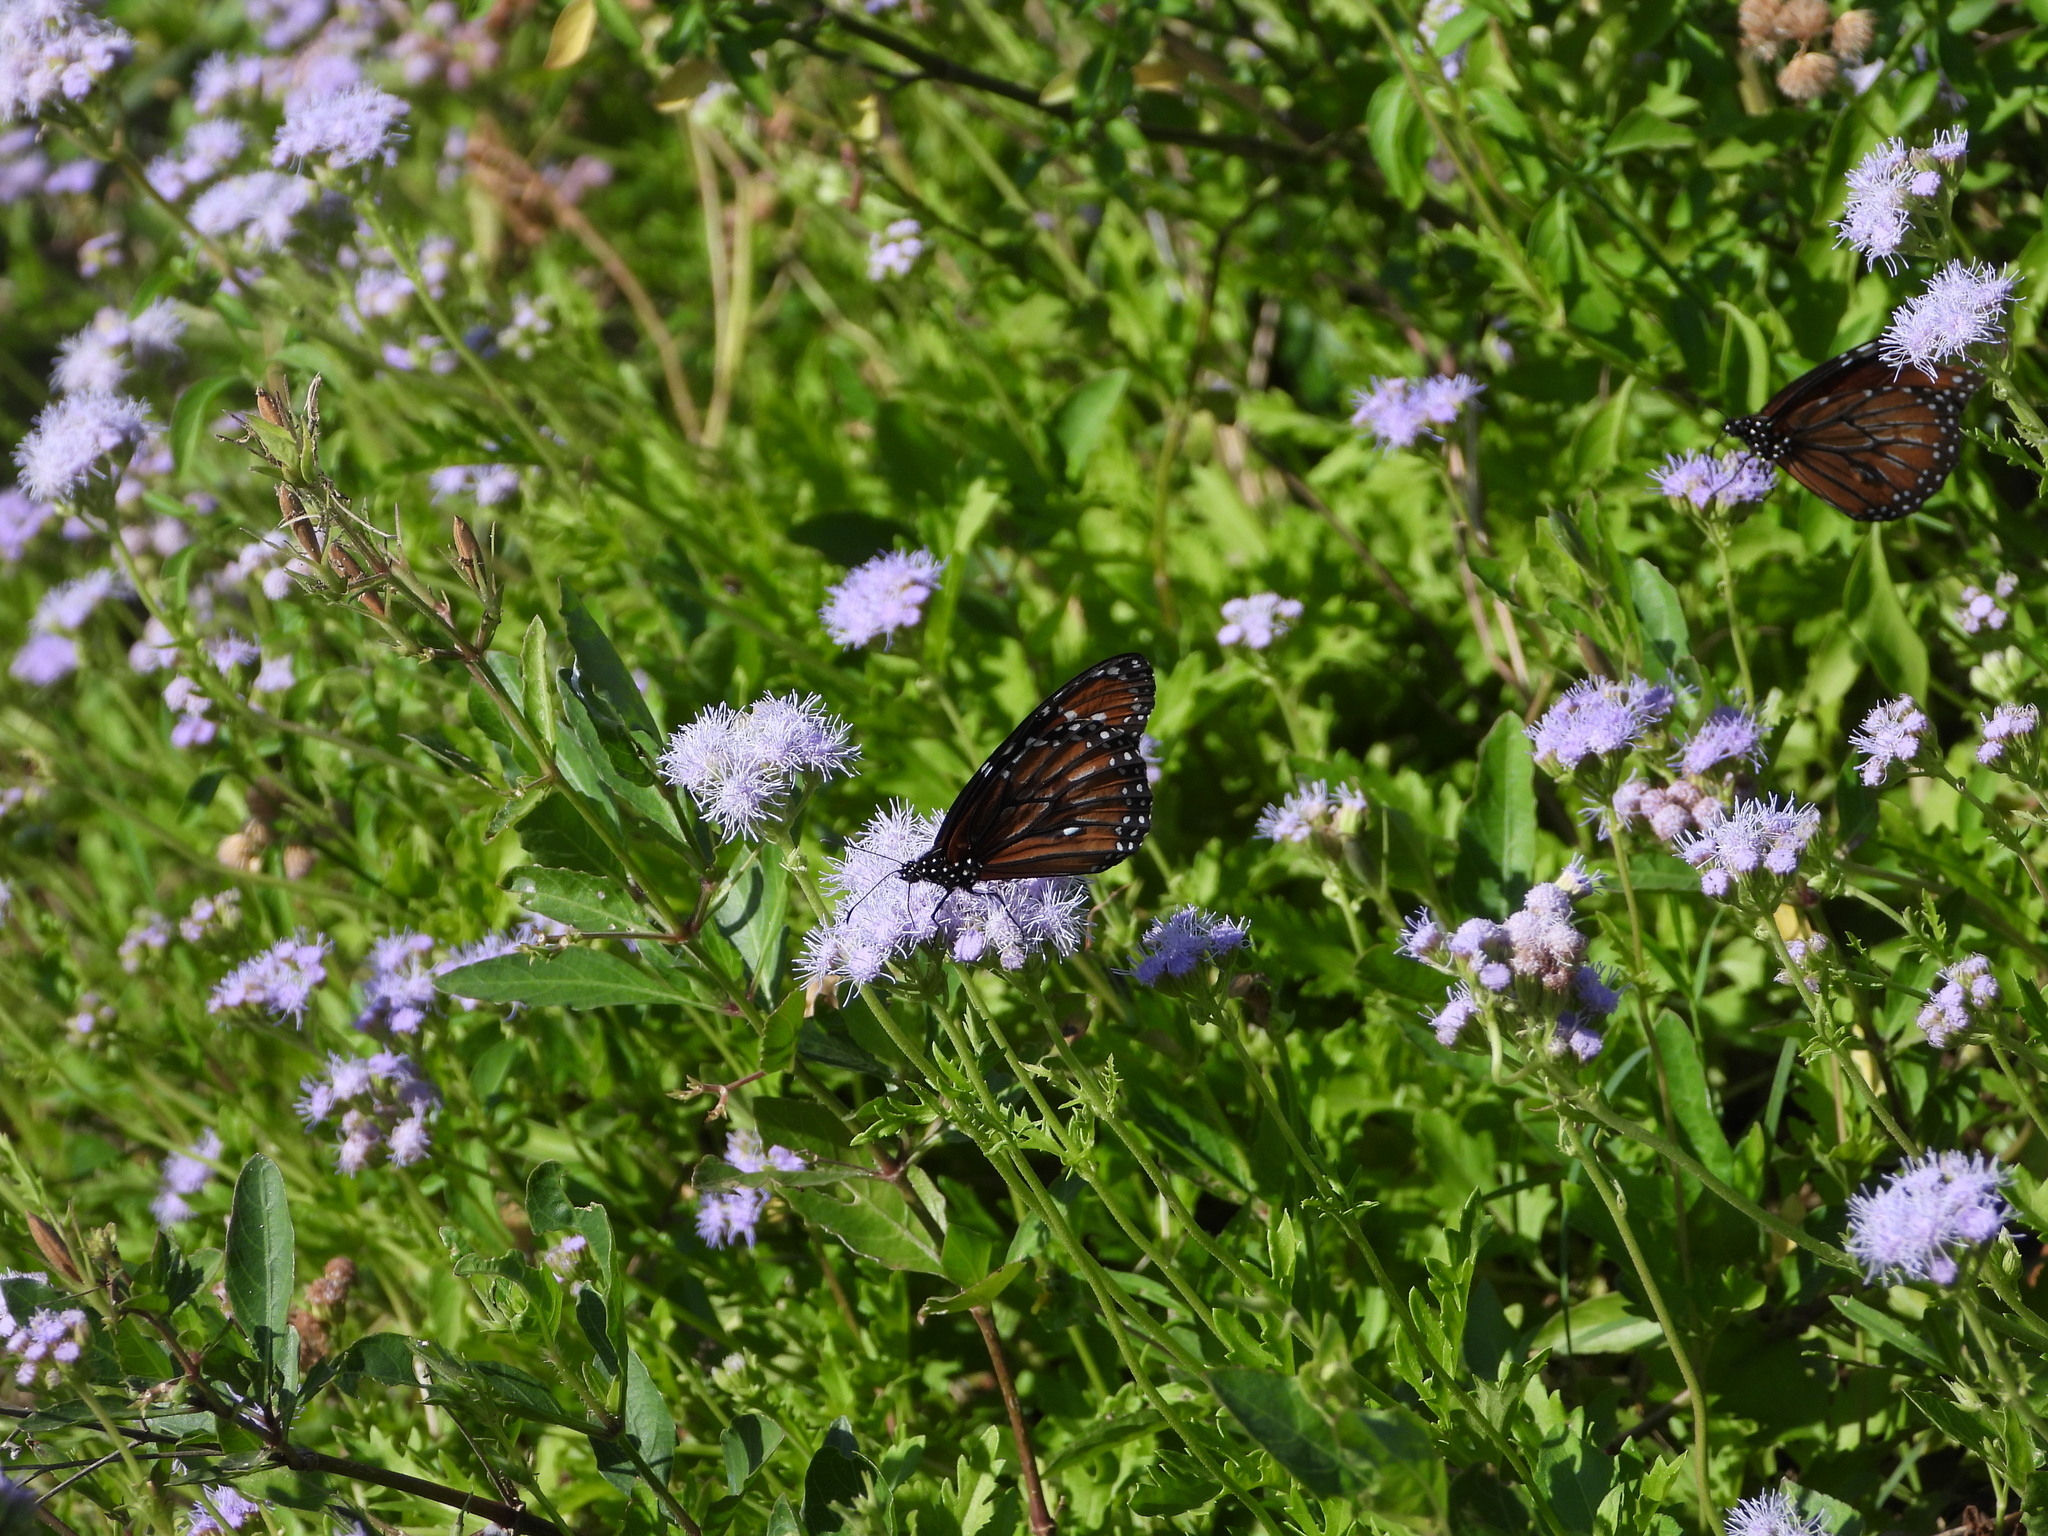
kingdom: Animalia
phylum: Arthropoda
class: Insecta
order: Lepidoptera
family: Nymphalidae
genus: Danaus
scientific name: Danaus eresimus
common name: Soldier
